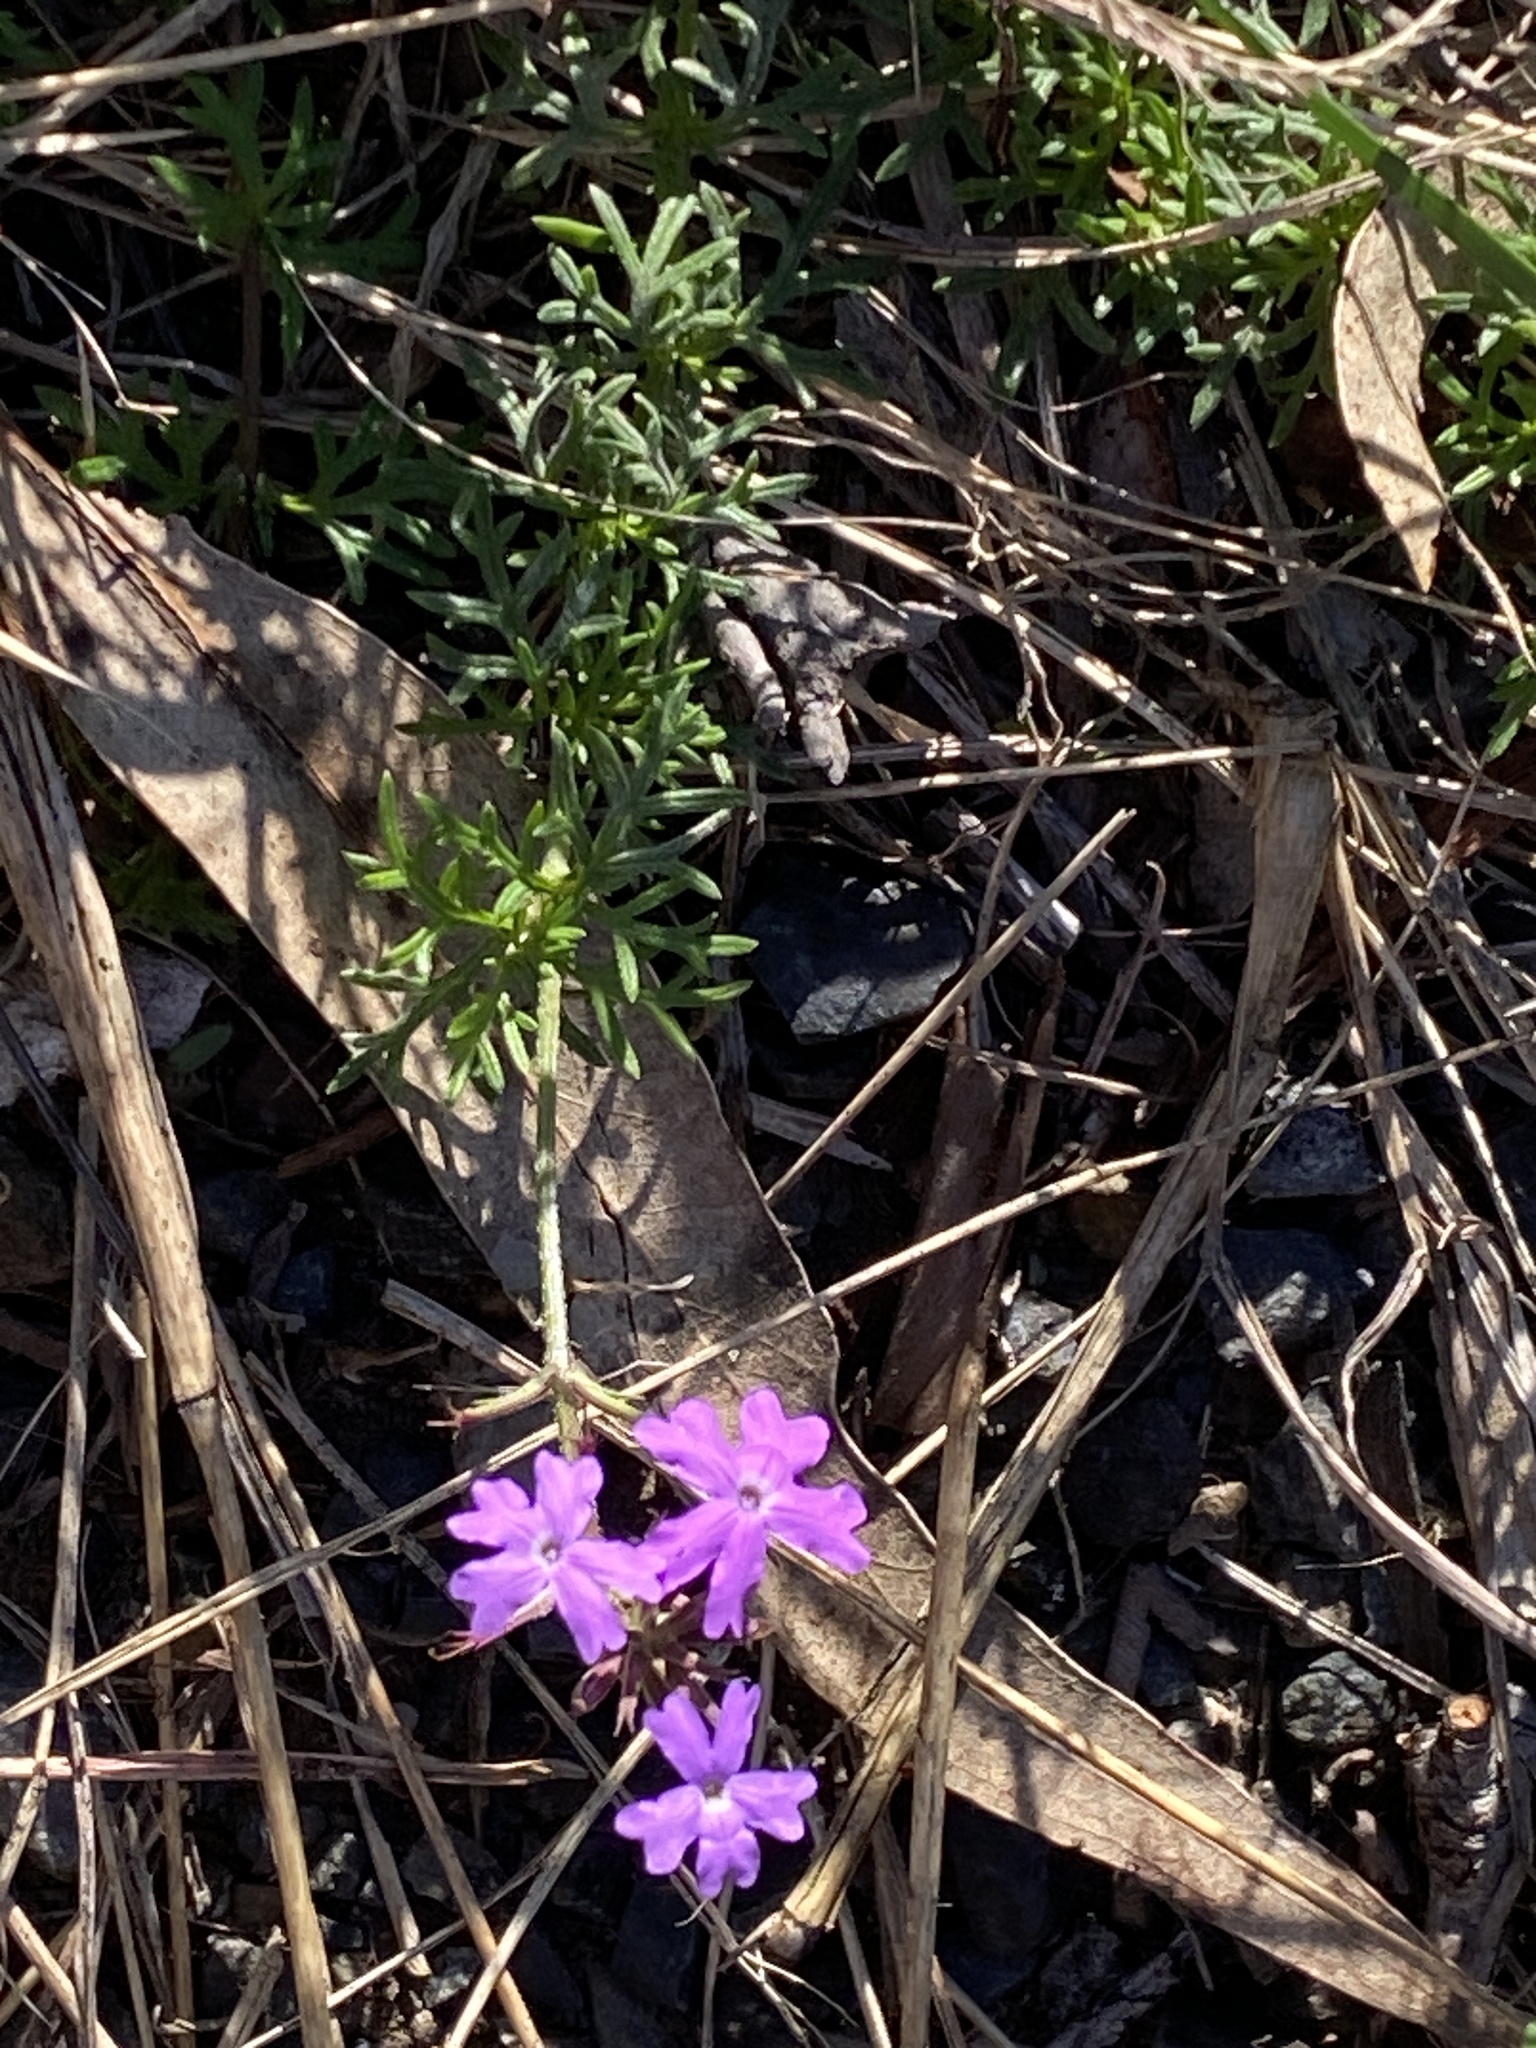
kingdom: Plantae
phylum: Tracheophyta
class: Magnoliopsida
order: Lamiales
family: Verbenaceae
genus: Verbena
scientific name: Verbena aristigera
